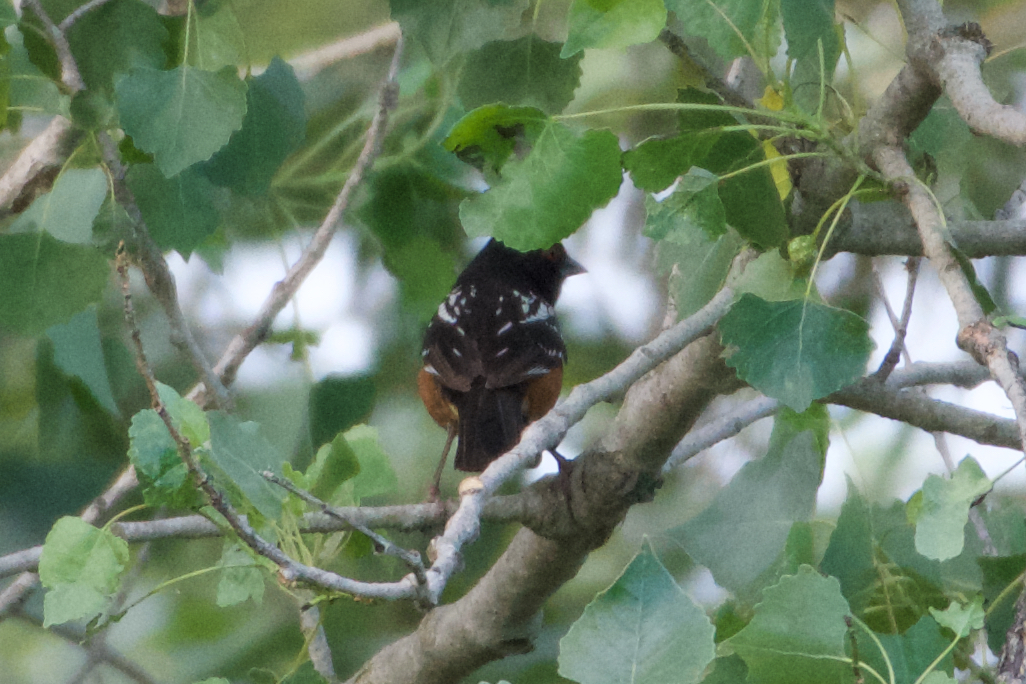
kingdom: Animalia
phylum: Chordata
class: Aves
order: Passeriformes
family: Passerellidae
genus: Pipilo
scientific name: Pipilo maculatus
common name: Spotted towhee
